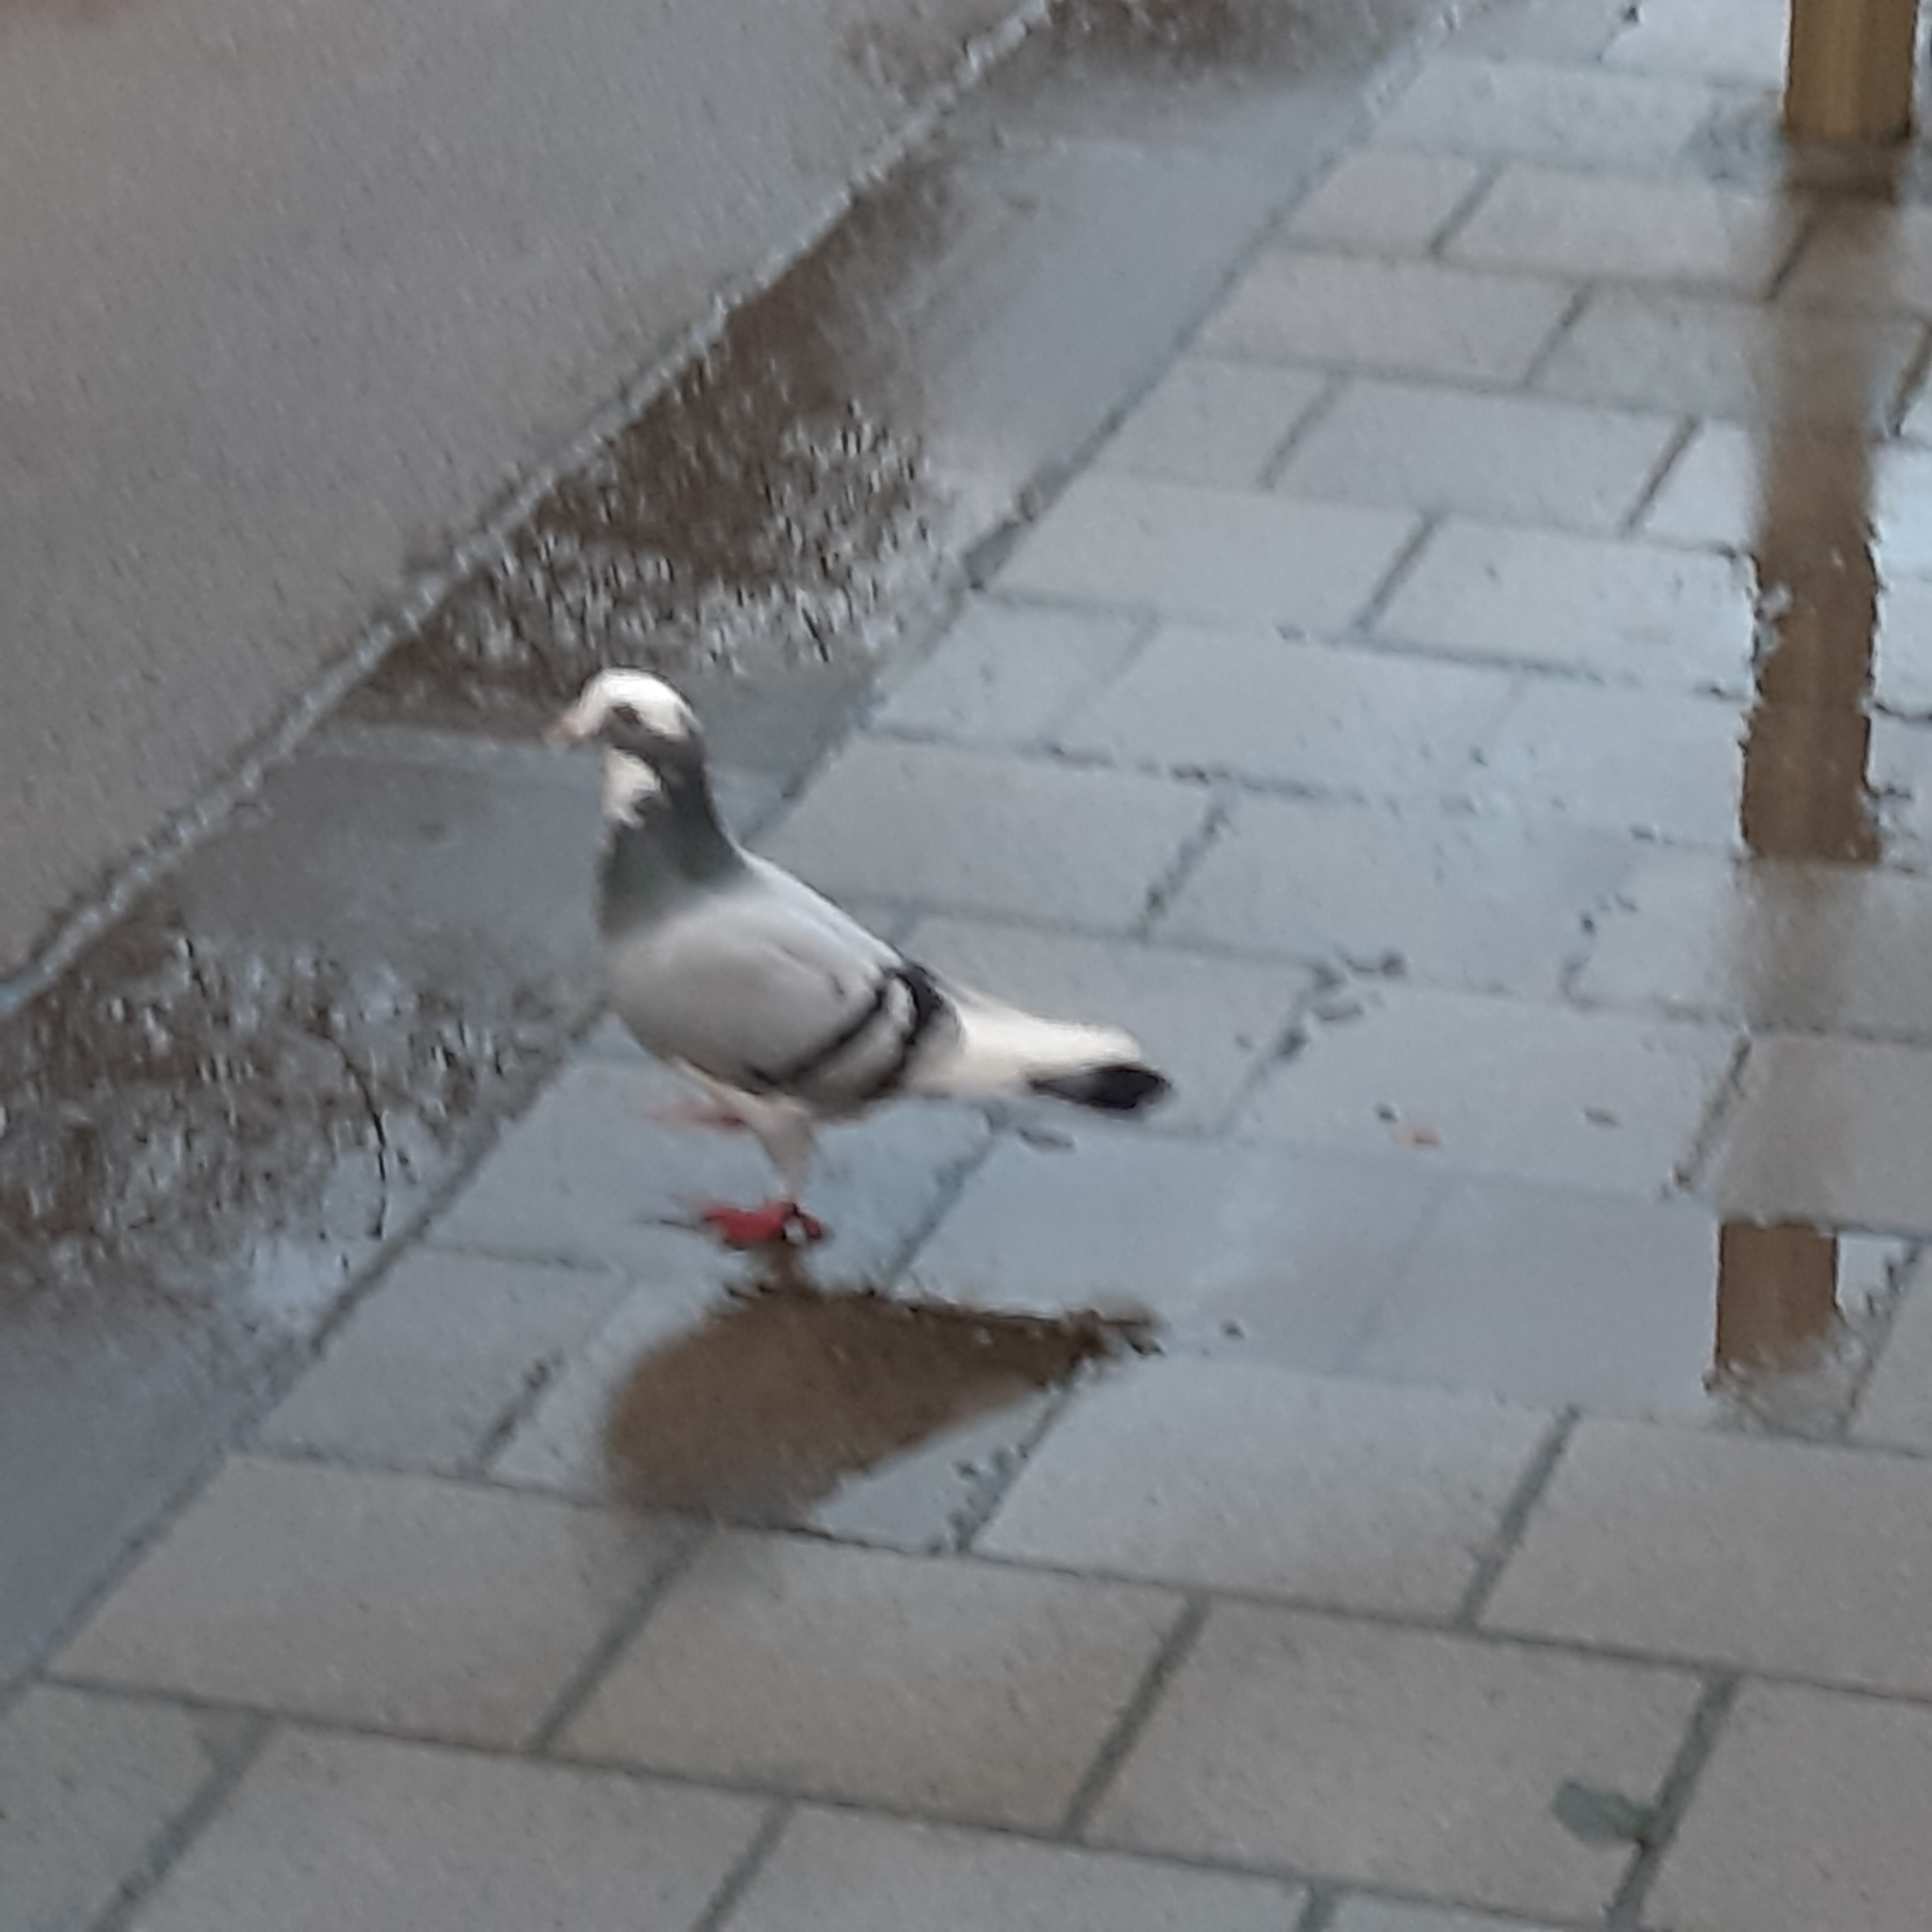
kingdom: Animalia
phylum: Chordata
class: Aves
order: Columbiformes
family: Columbidae
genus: Columba
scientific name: Columba livia
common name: Rock pigeon
